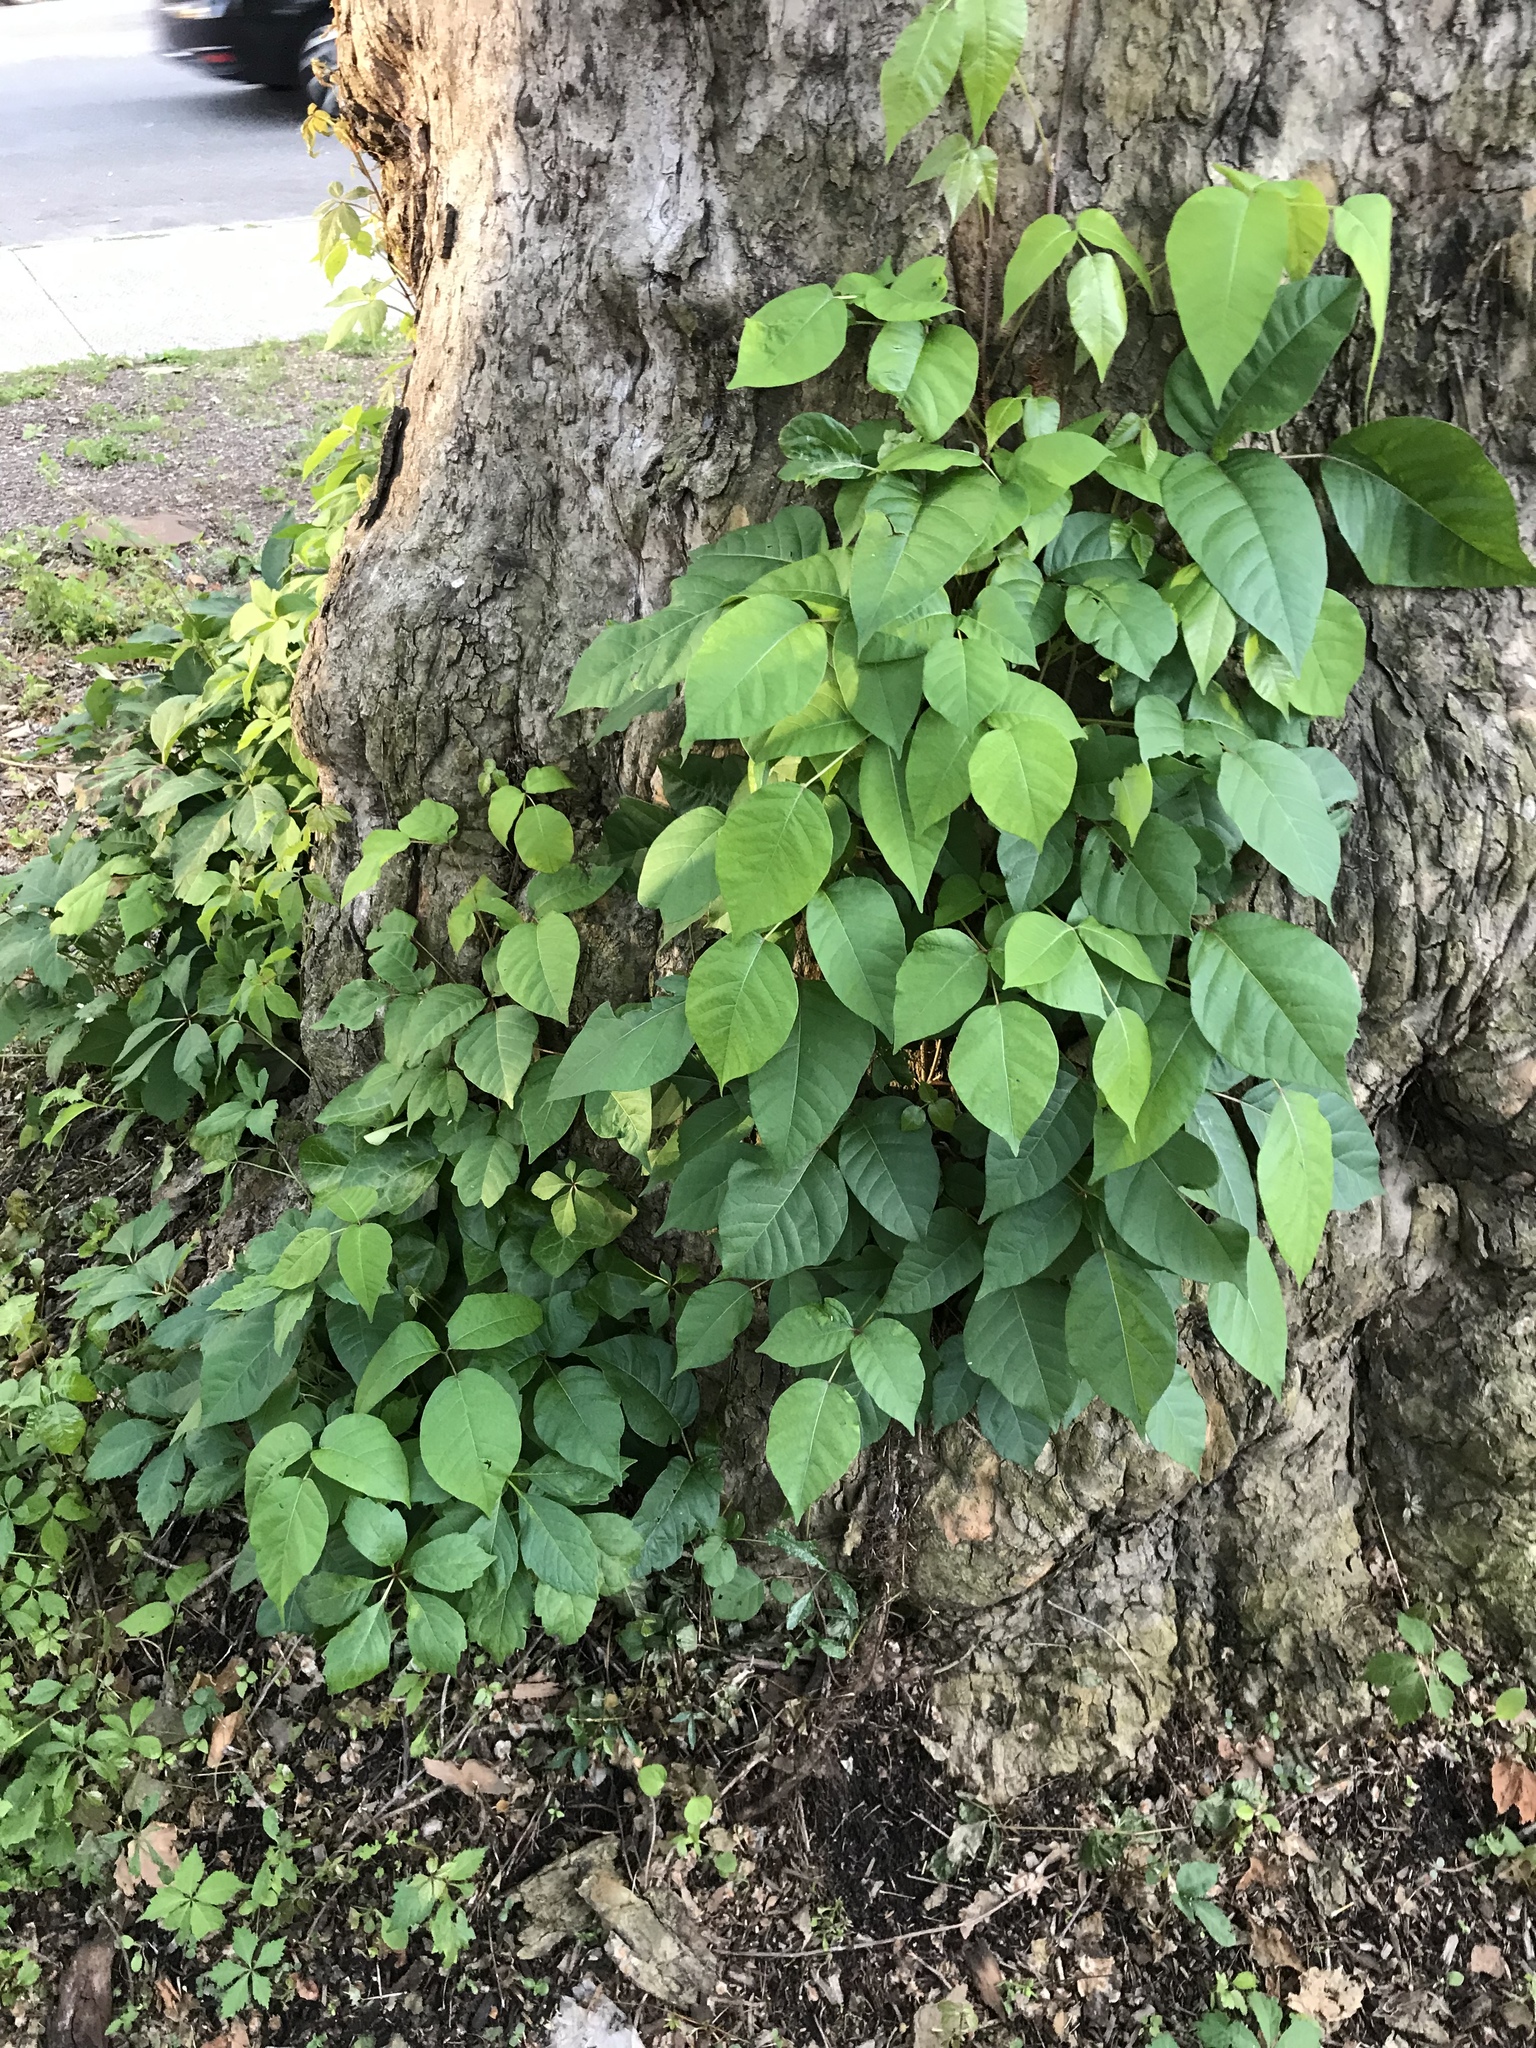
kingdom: Plantae
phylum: Tracheophyta
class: Magnoliopsida
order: Sapindales
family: Anacardiaceae
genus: Toxicodendron
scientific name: Toxicodendron radicans
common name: Poison ivy
